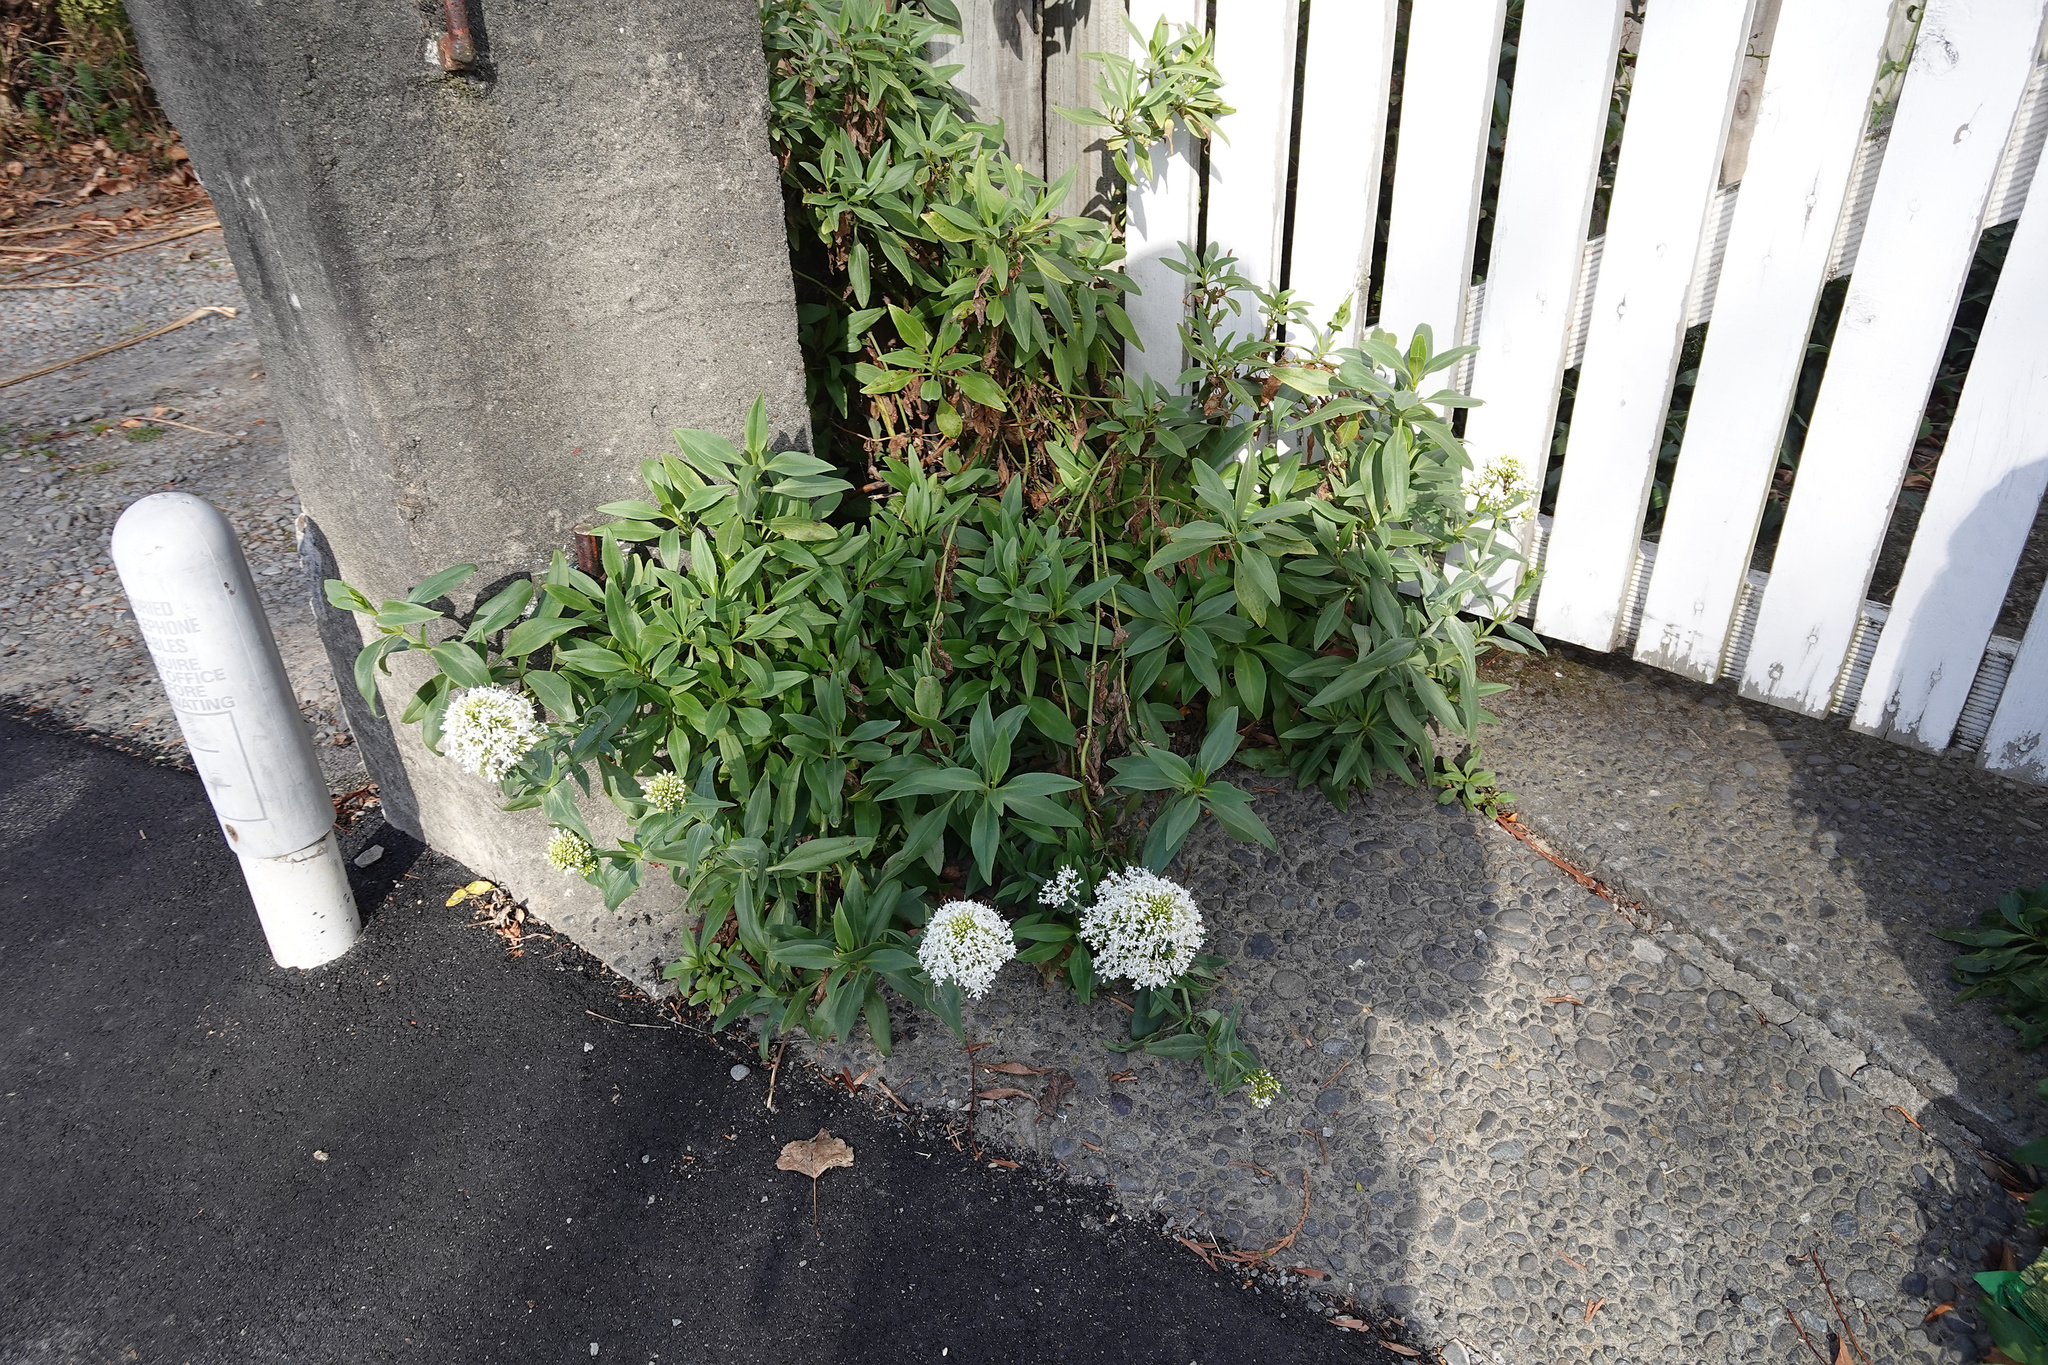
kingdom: Plantae
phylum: Tracheophyta
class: Magnoliopsida
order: Dipsacales
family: Caprifoliaceae
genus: Centranthus
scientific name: Centranthus ruber
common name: Red valerian
